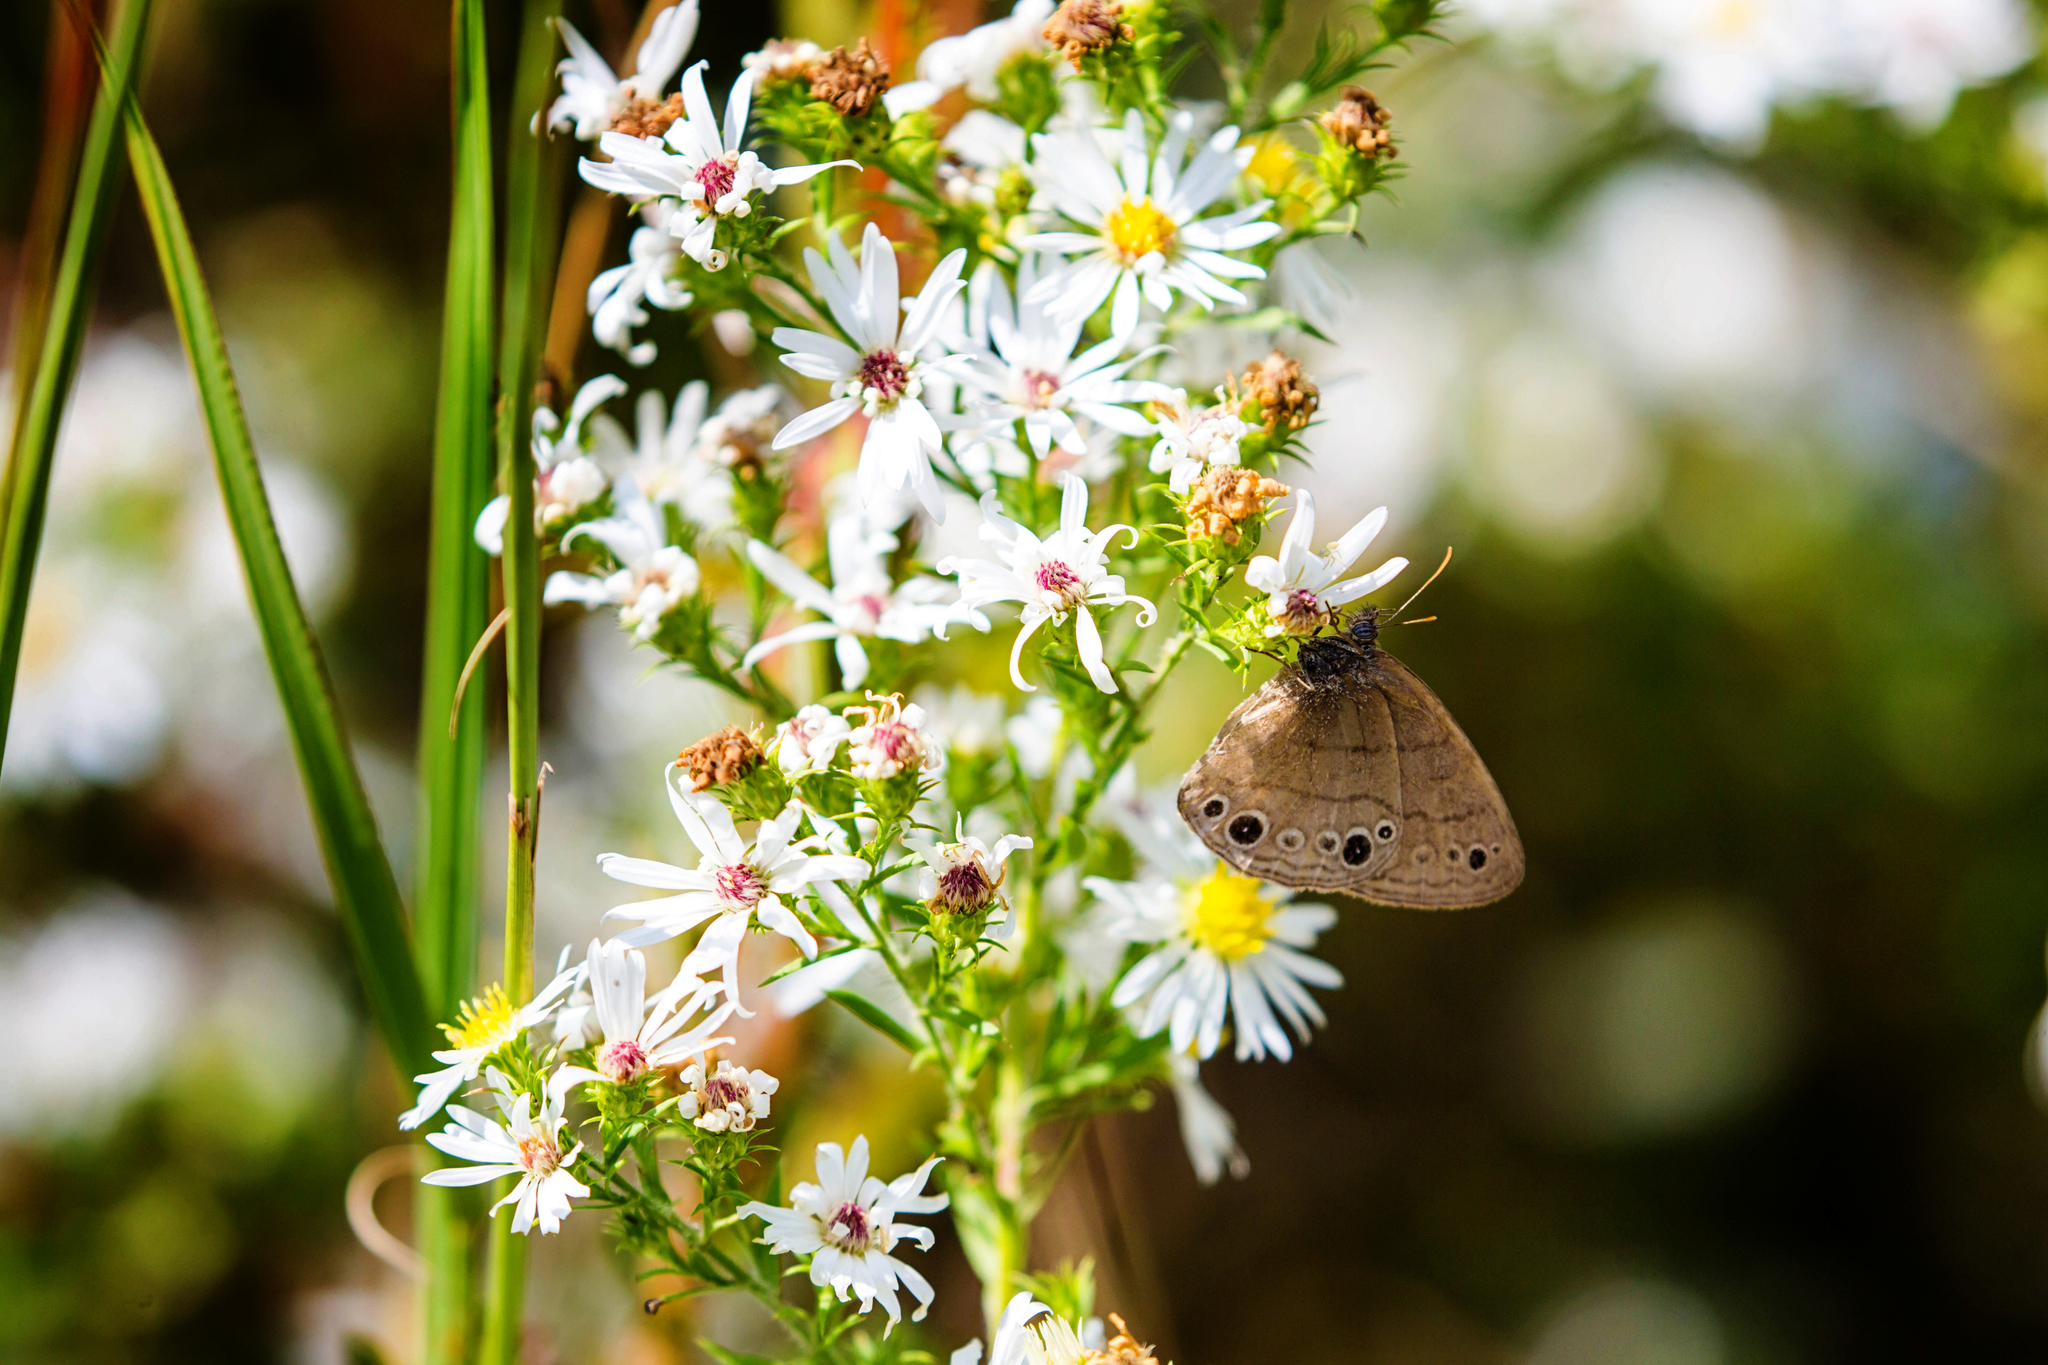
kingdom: Animalia
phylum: Arthropoda
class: Insecta
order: Lepidoptera
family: Nymphalidae
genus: Hermeuptychia
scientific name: Hermeuptychia hermes
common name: Hermes satyr
